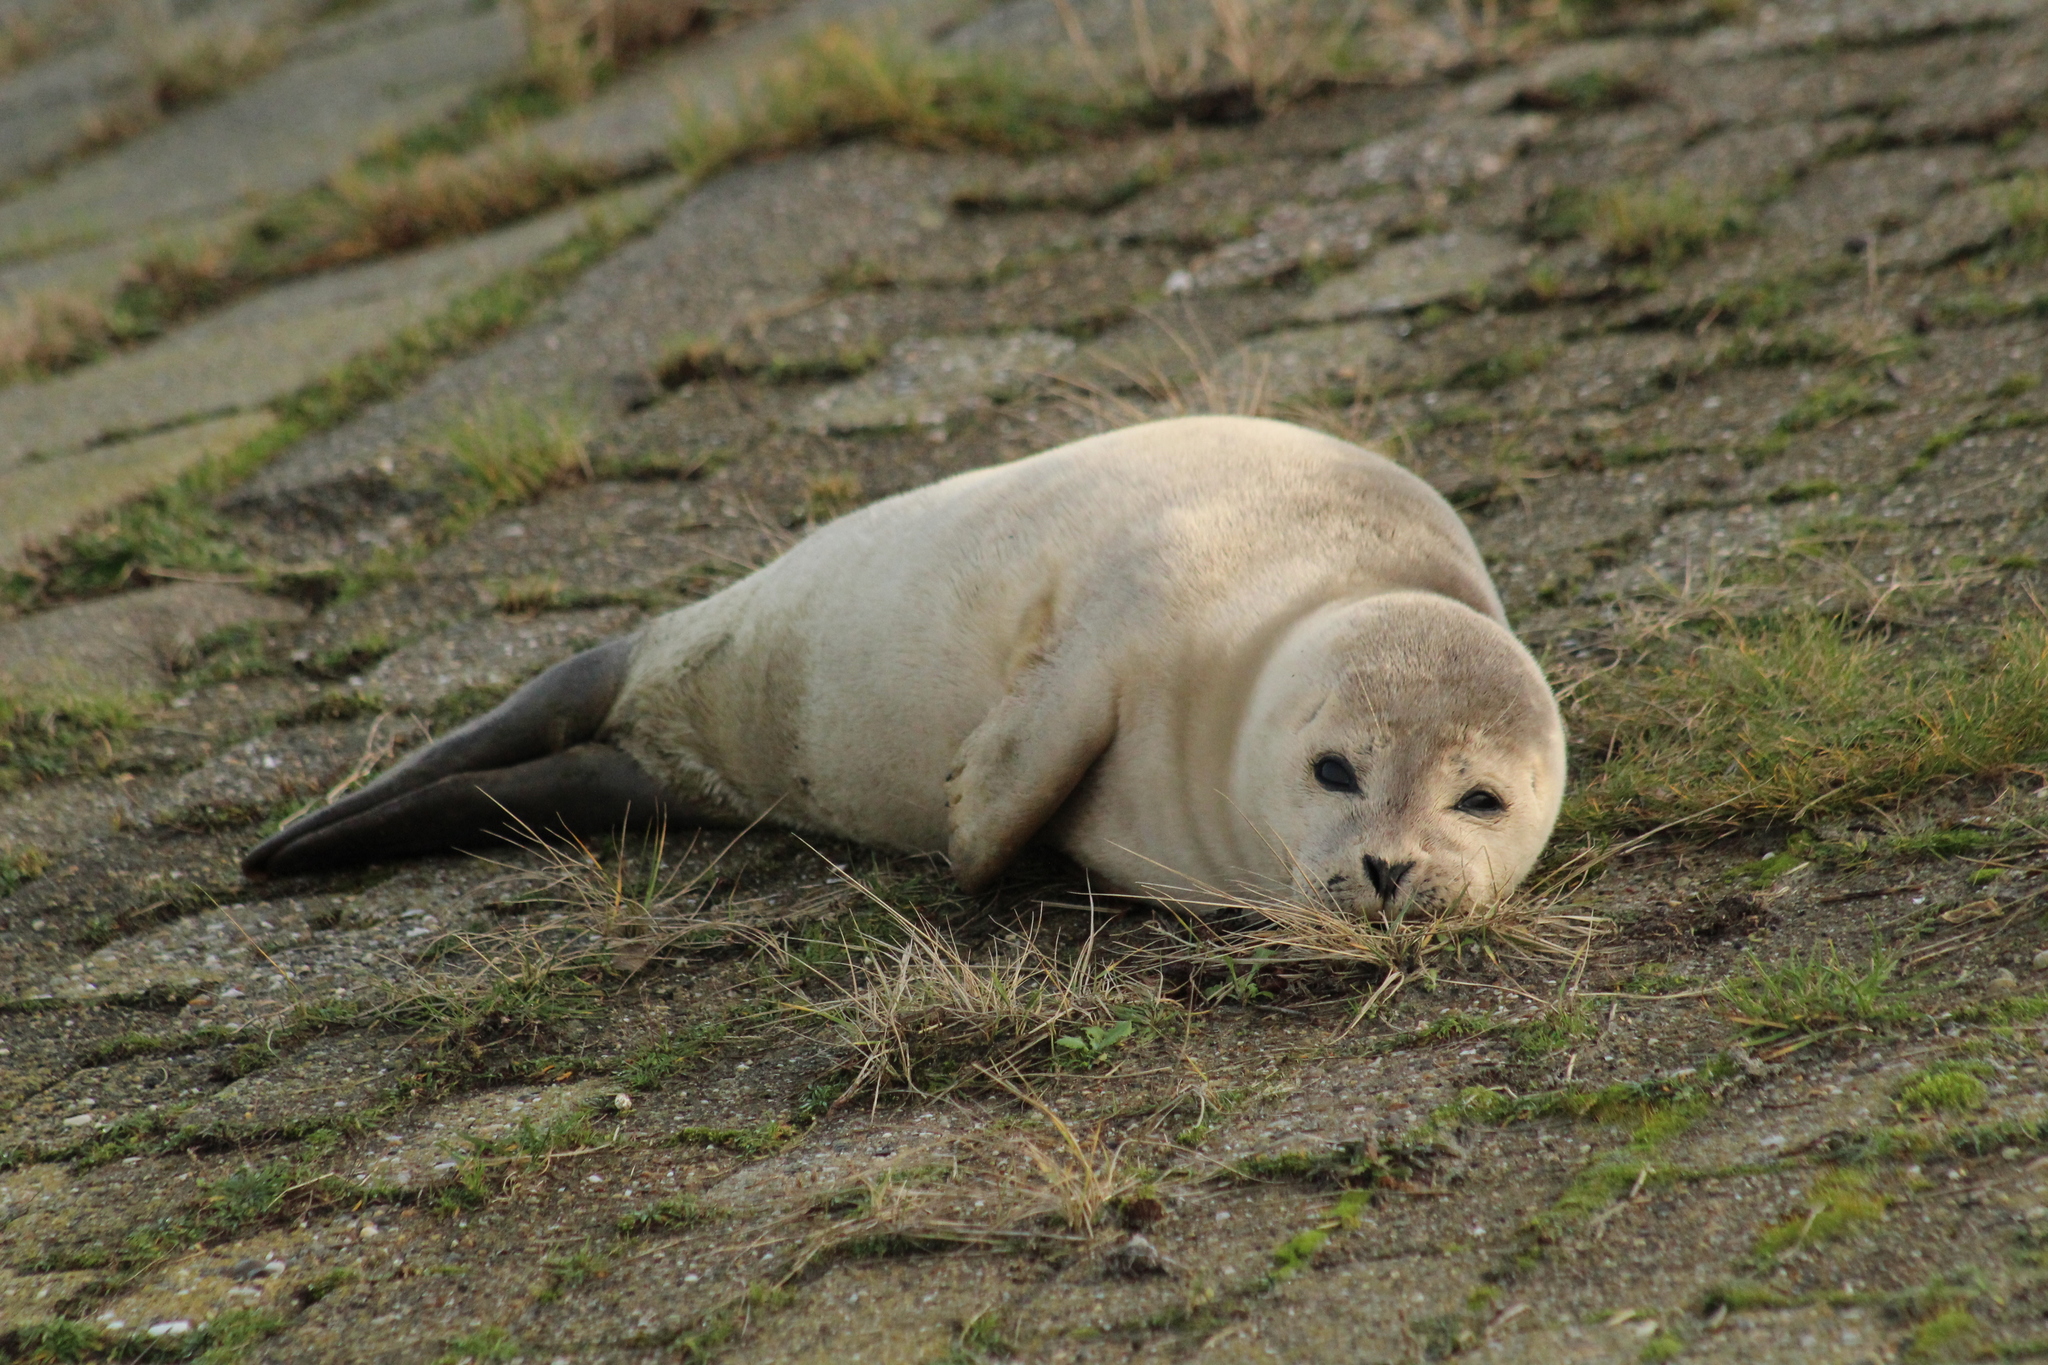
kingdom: Animalia
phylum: Chordata
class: Mammalia
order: Carnivora
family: Phocidae
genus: Phoca
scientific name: Phoca vitulina
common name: Harbor seal
